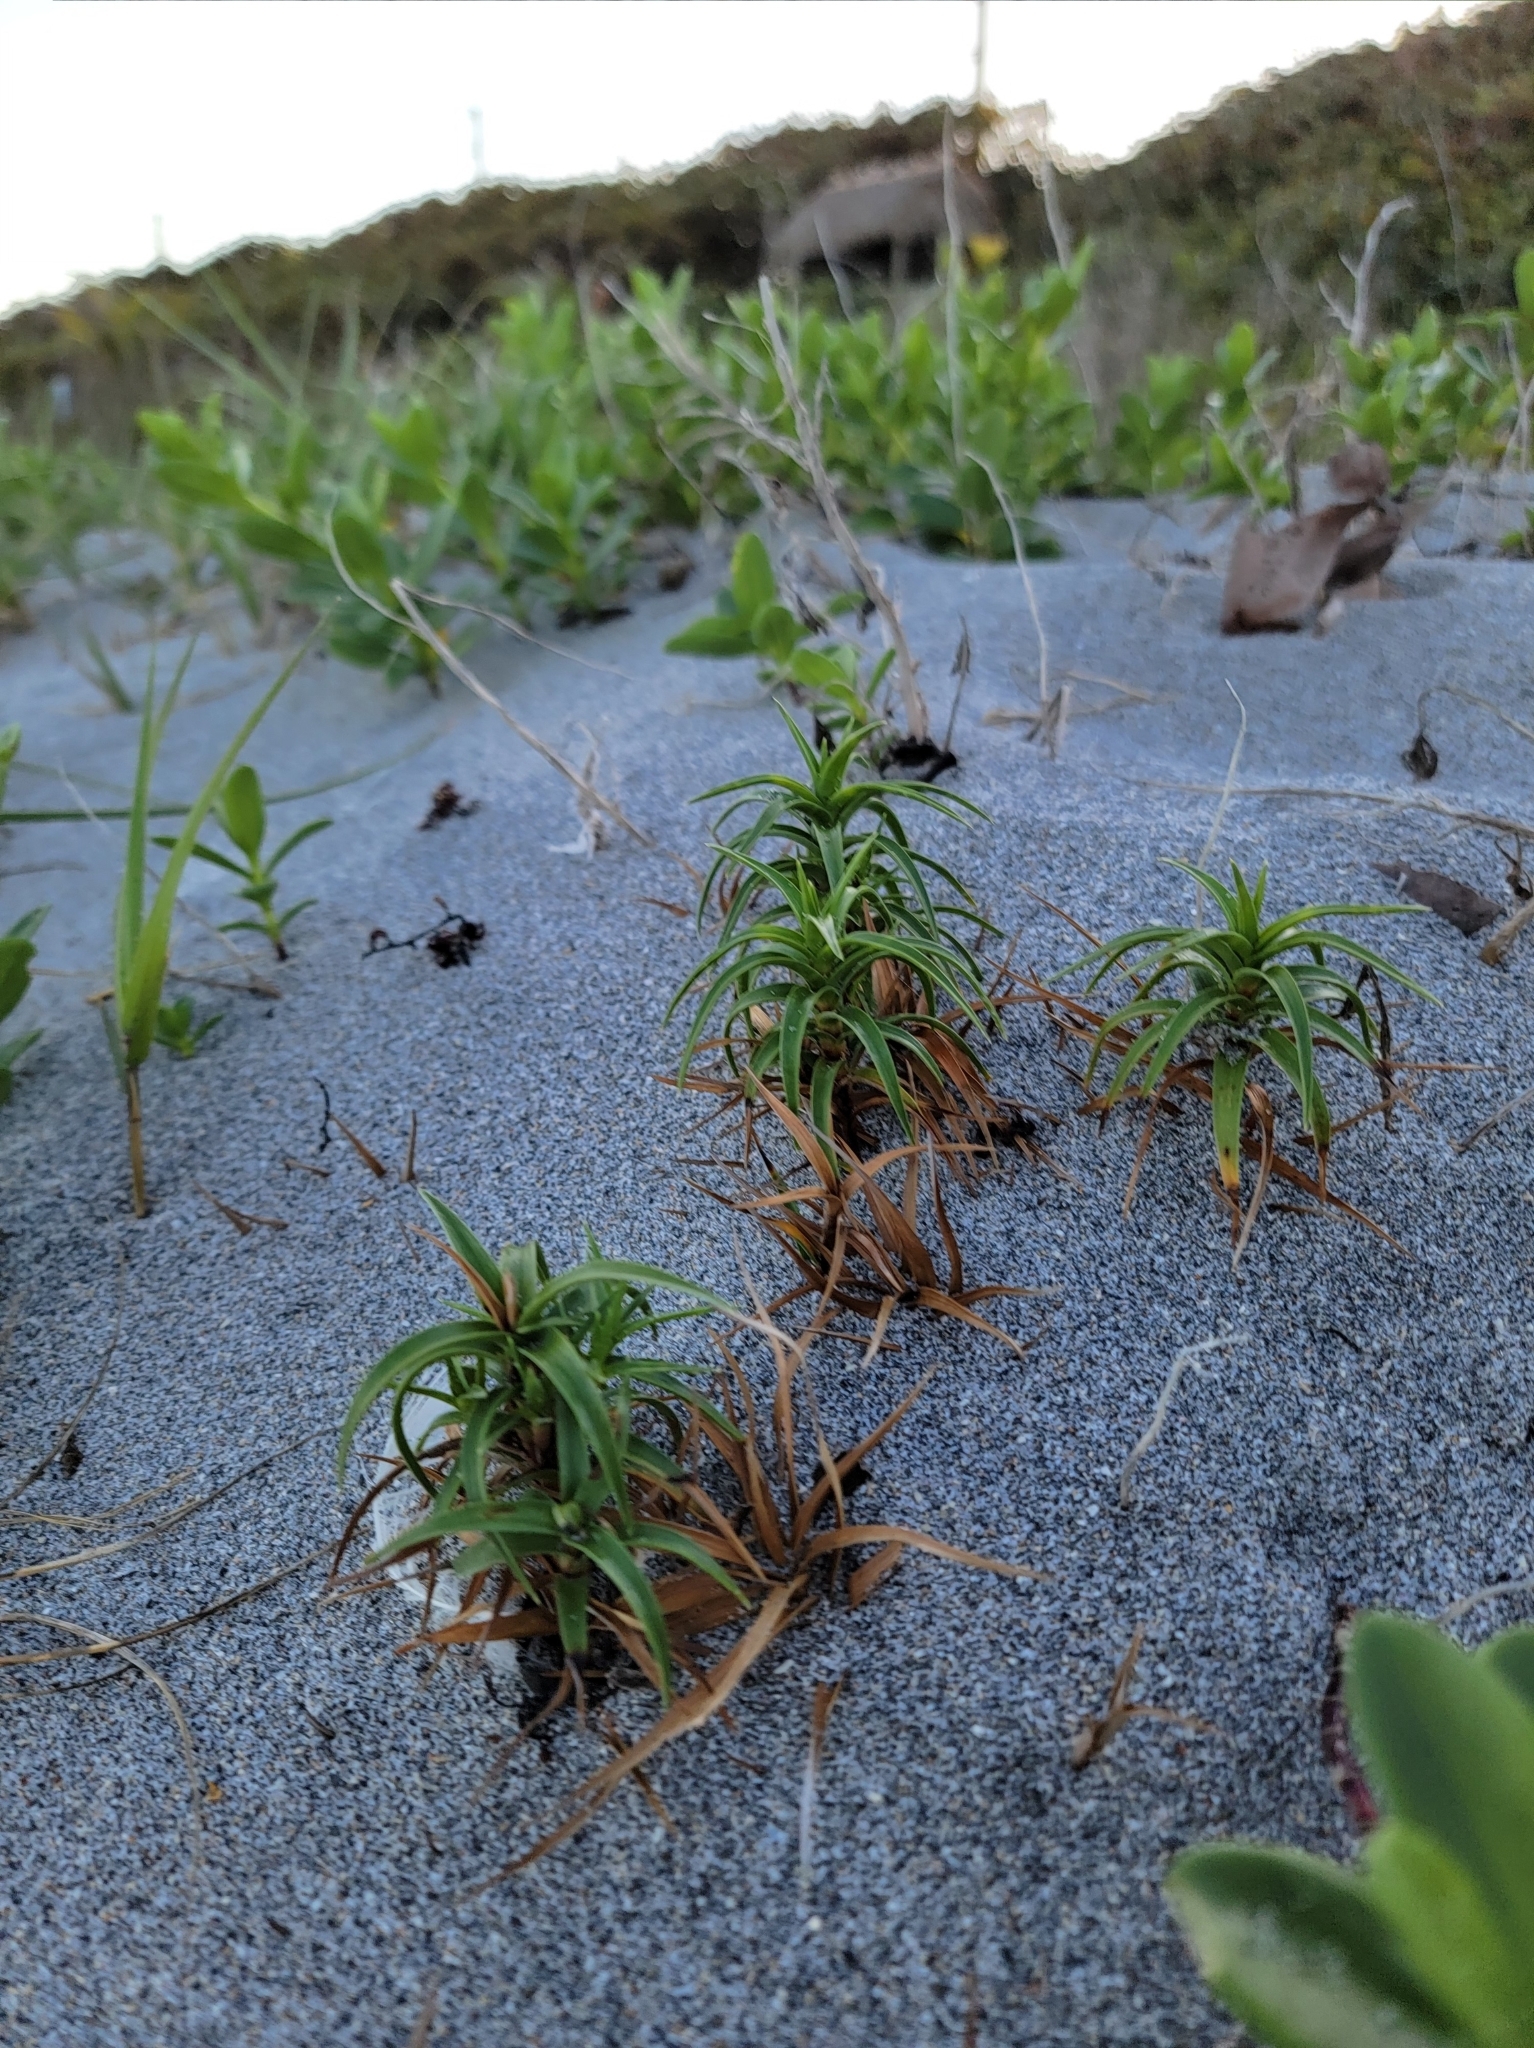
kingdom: Plantae
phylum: Tracheophyta
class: Liliopsida
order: Poales
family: Cyperaceae
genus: Cyperus
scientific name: Cyperus pedunculatus
